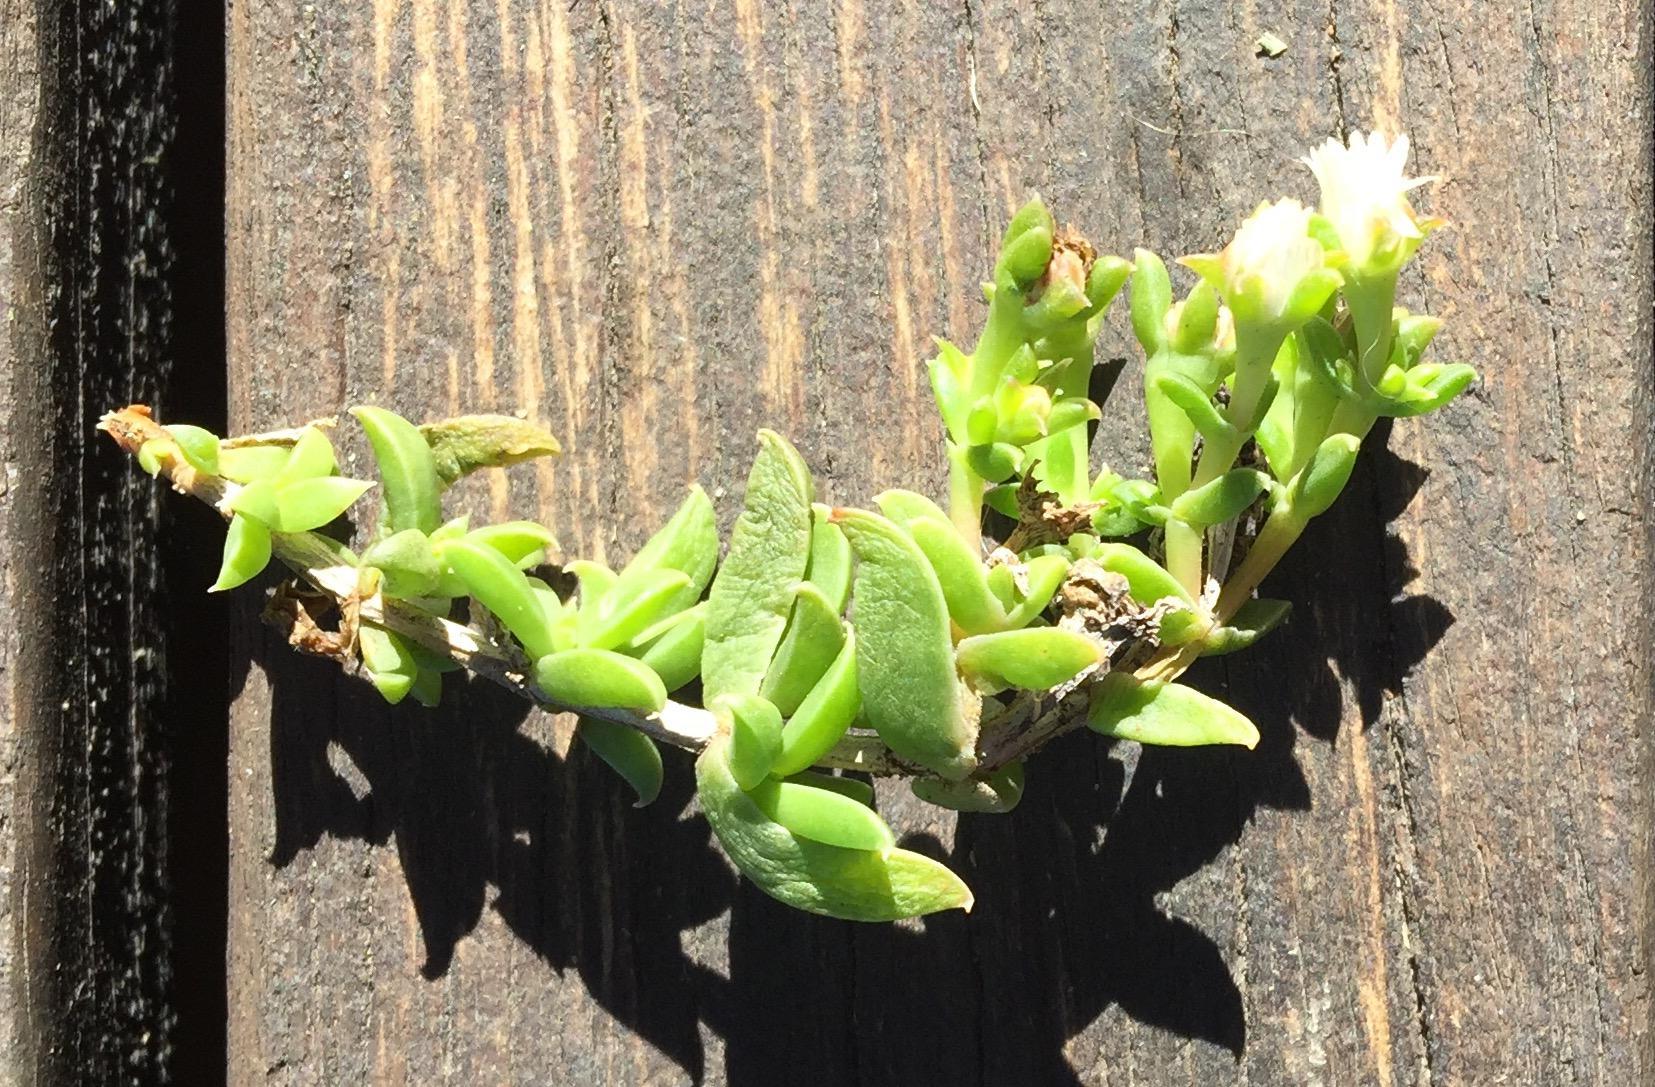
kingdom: Plantae
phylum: Tracheophyta
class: Magnoliopsida
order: Caryophyllales
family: Aizoaceae
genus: Delosperma
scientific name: Delosperma inconspicuum
